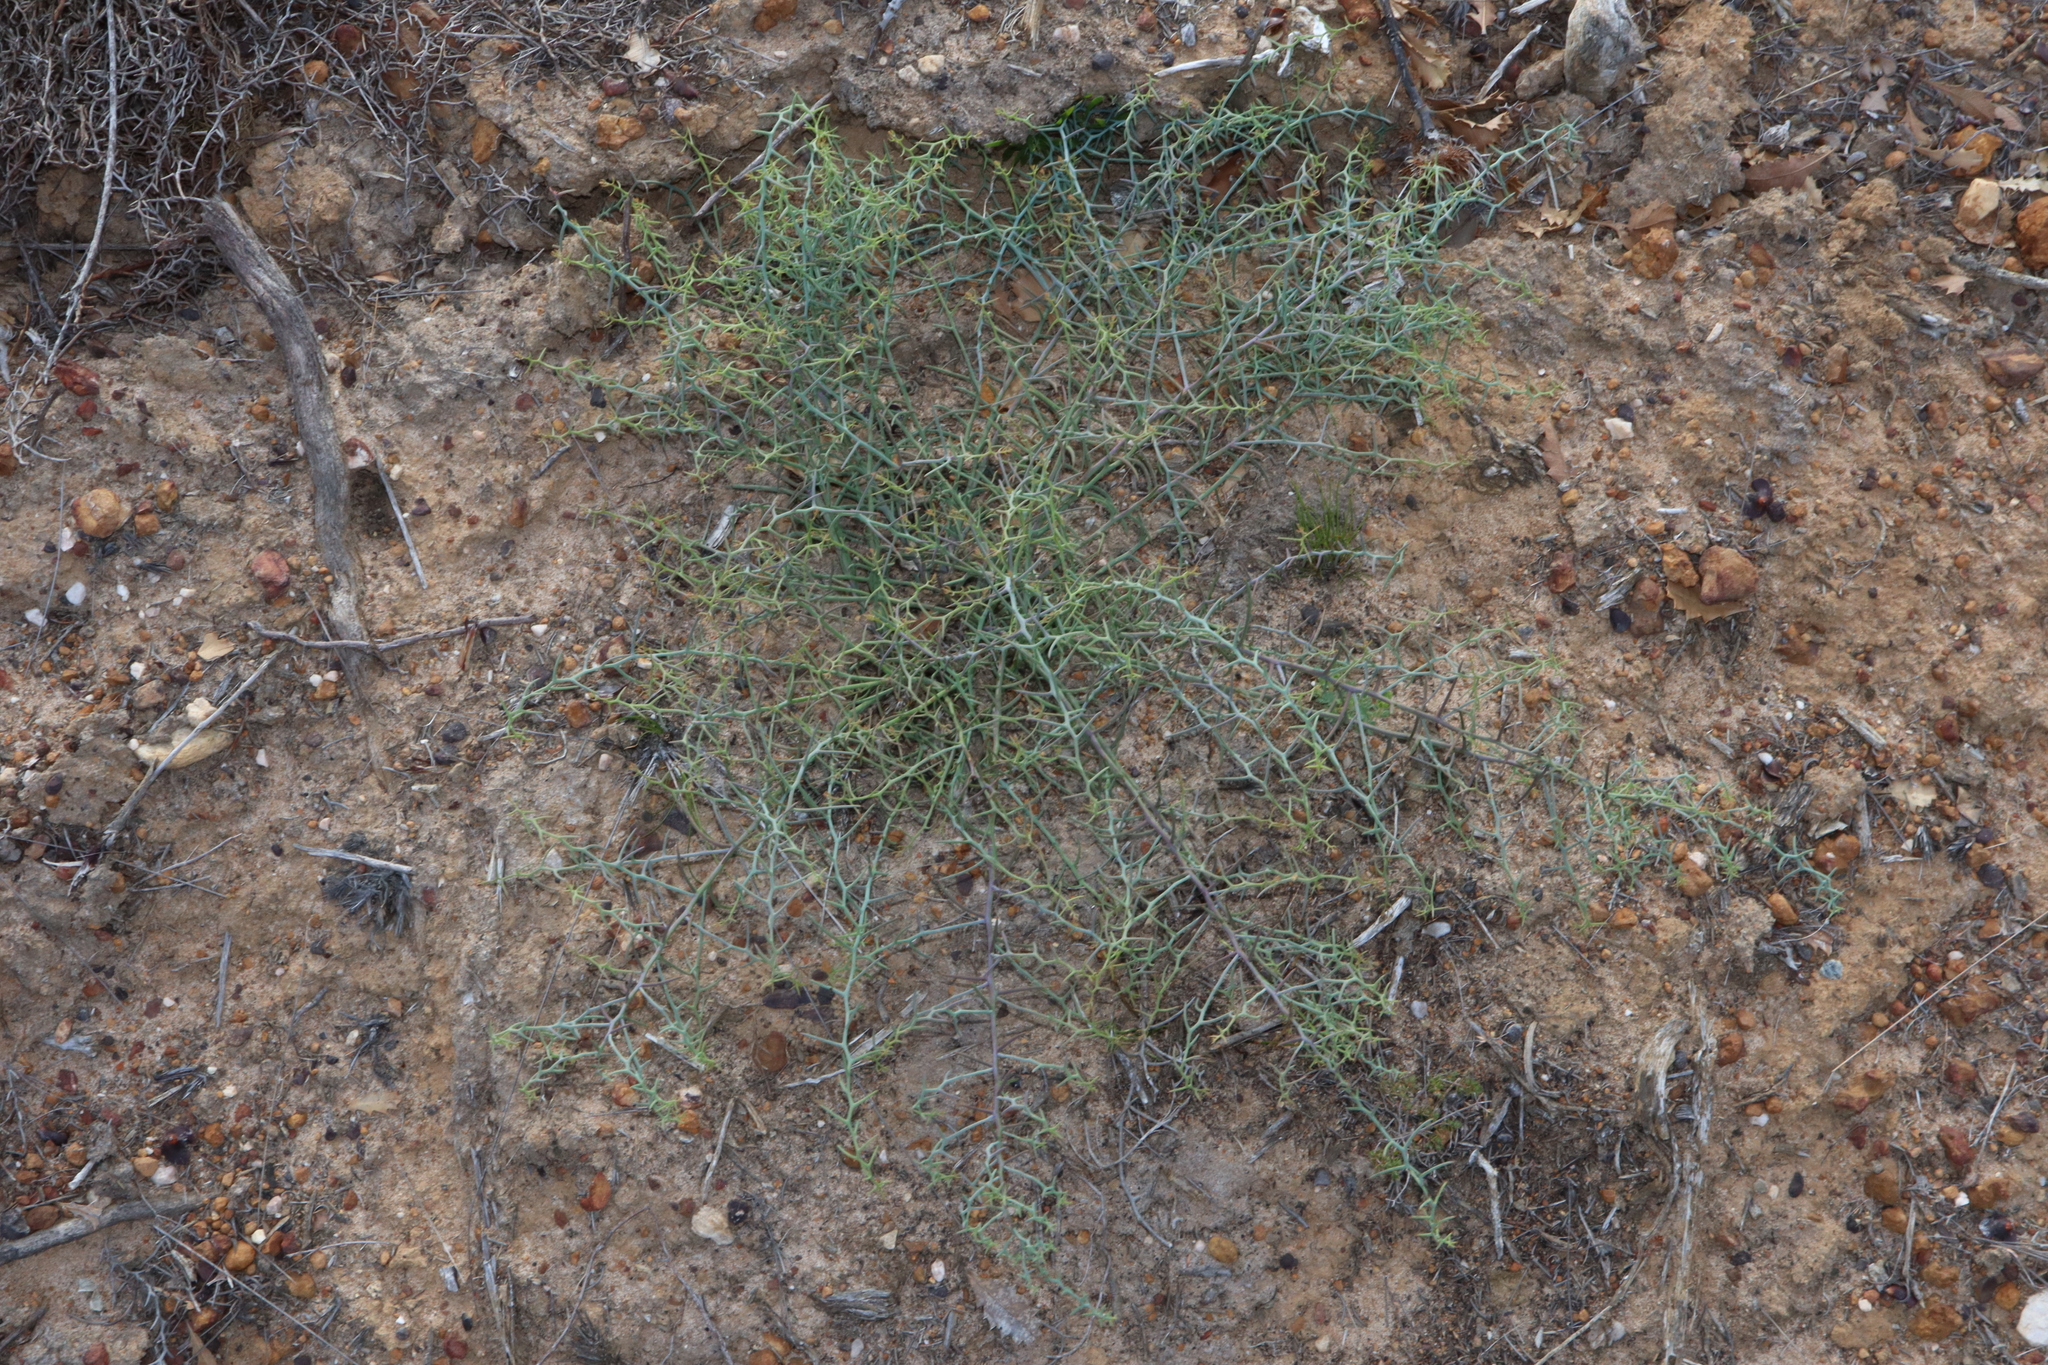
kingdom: Plantae
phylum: Tracheophyta
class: Magnoliopsida
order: Fabales
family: Fabaceae
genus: Daviesia
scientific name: Daviesia incrassata
